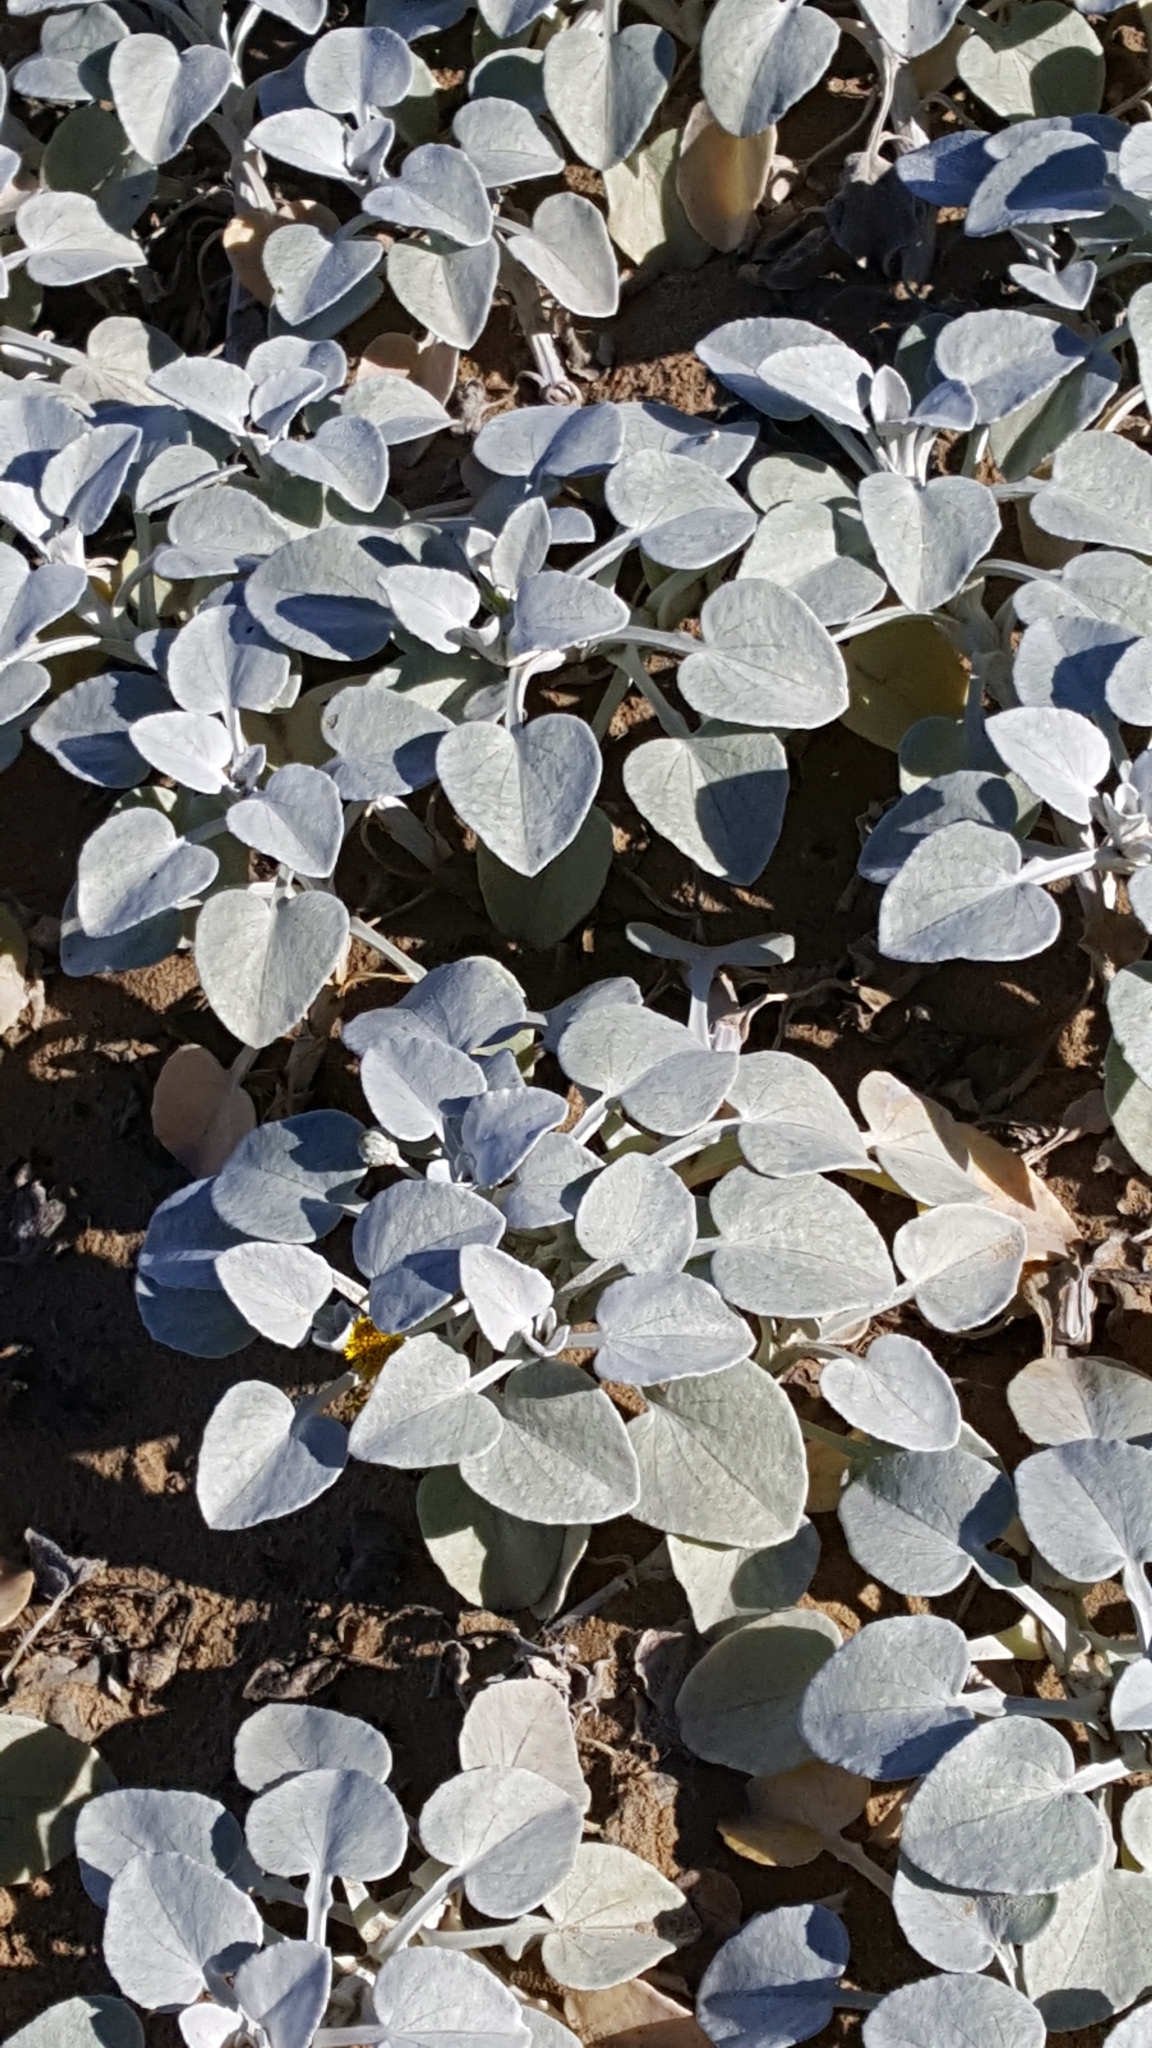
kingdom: Plantae
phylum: Tracheophyta
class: Magnoliopsida
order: Asterales
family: Asteraceae
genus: Arctotheca
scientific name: Arctotheca populifolia
